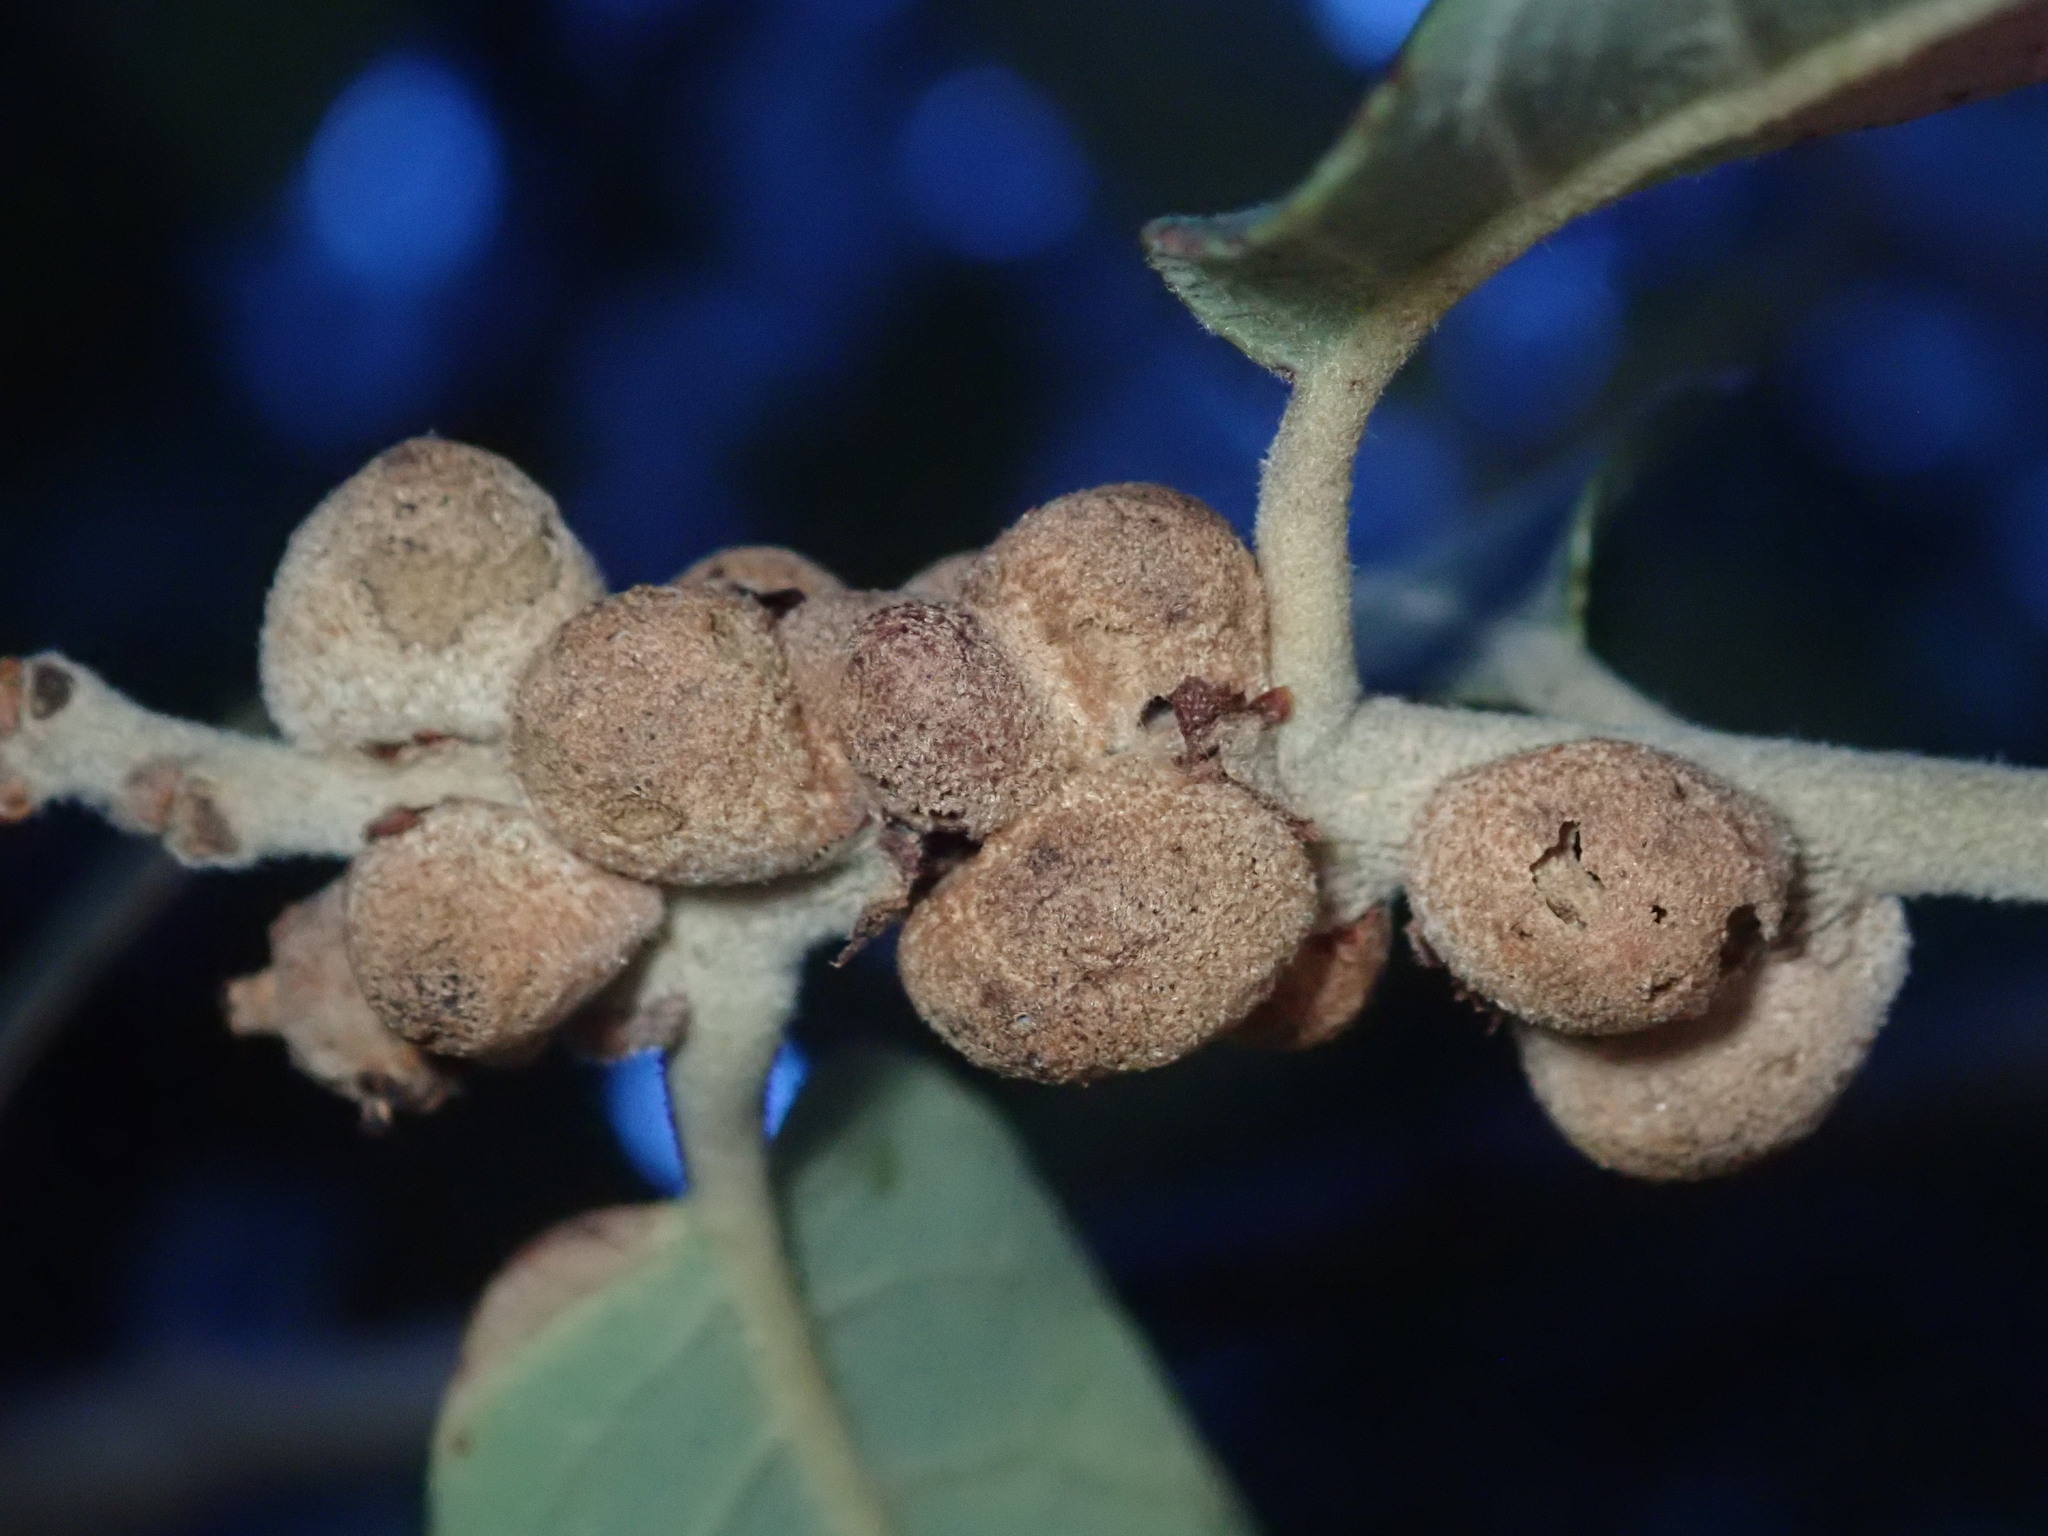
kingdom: Animalia
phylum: Arthropoda
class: Insecta
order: Hymenoptera
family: Cynipidae
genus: Disholcaspis
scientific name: Disholcaspis
